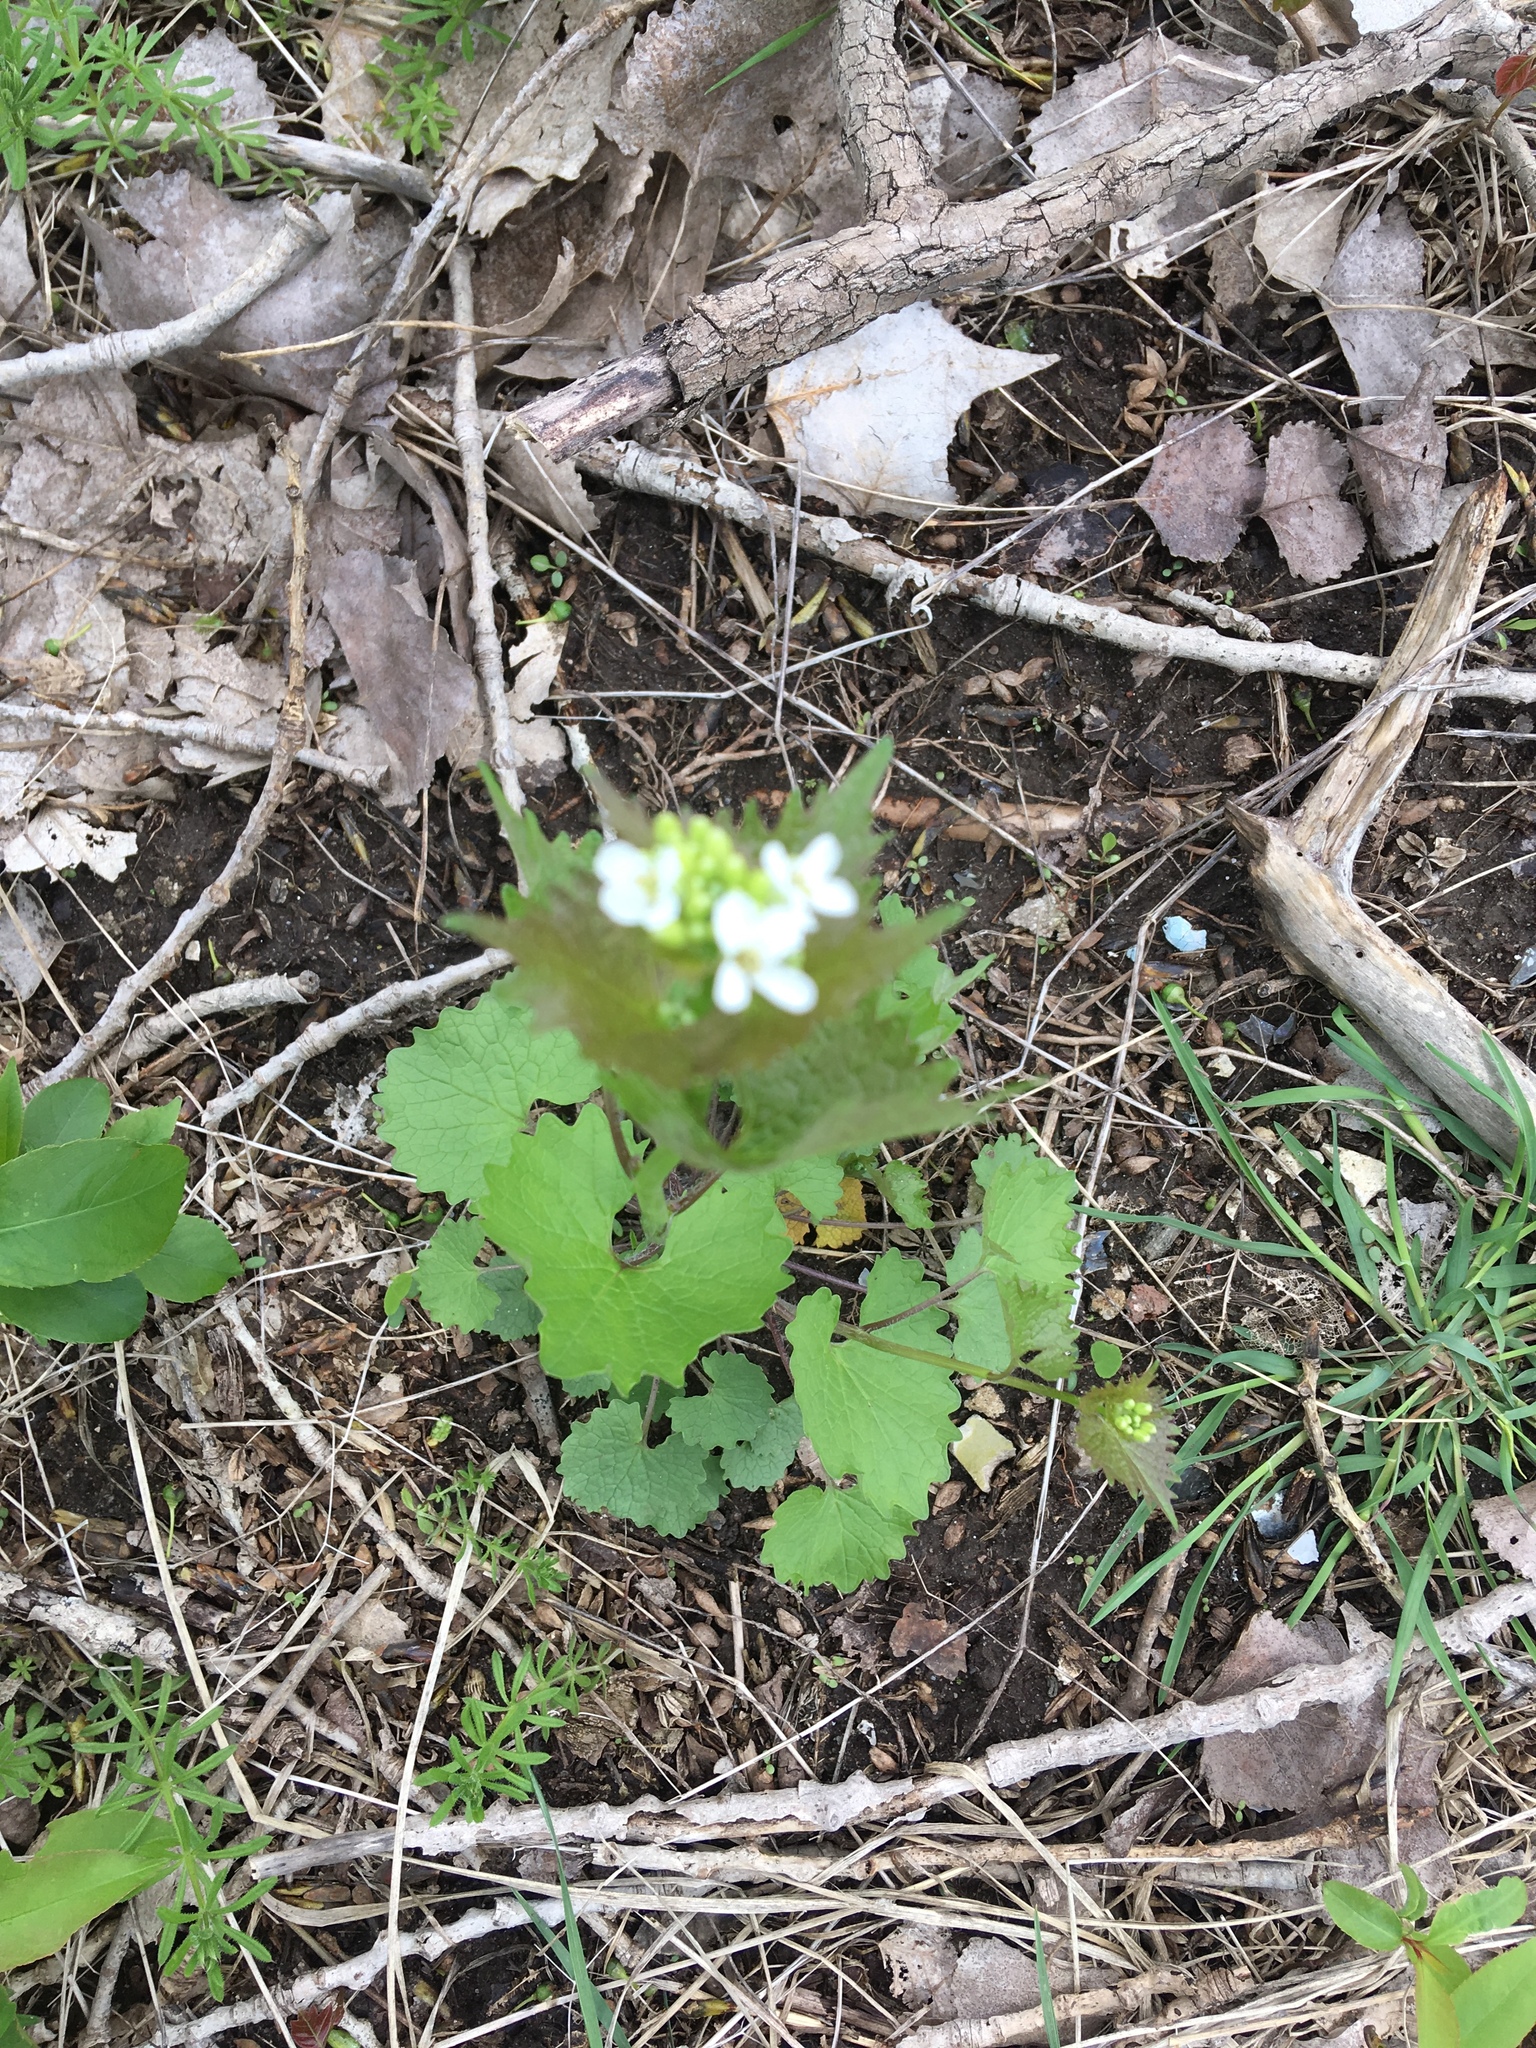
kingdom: Plantae
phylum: Tracheophyta
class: Magnoliopsida
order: Brassicales
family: Brassicaceae
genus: Alliaria
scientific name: Alliaria petiolata
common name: Garlic mustard
